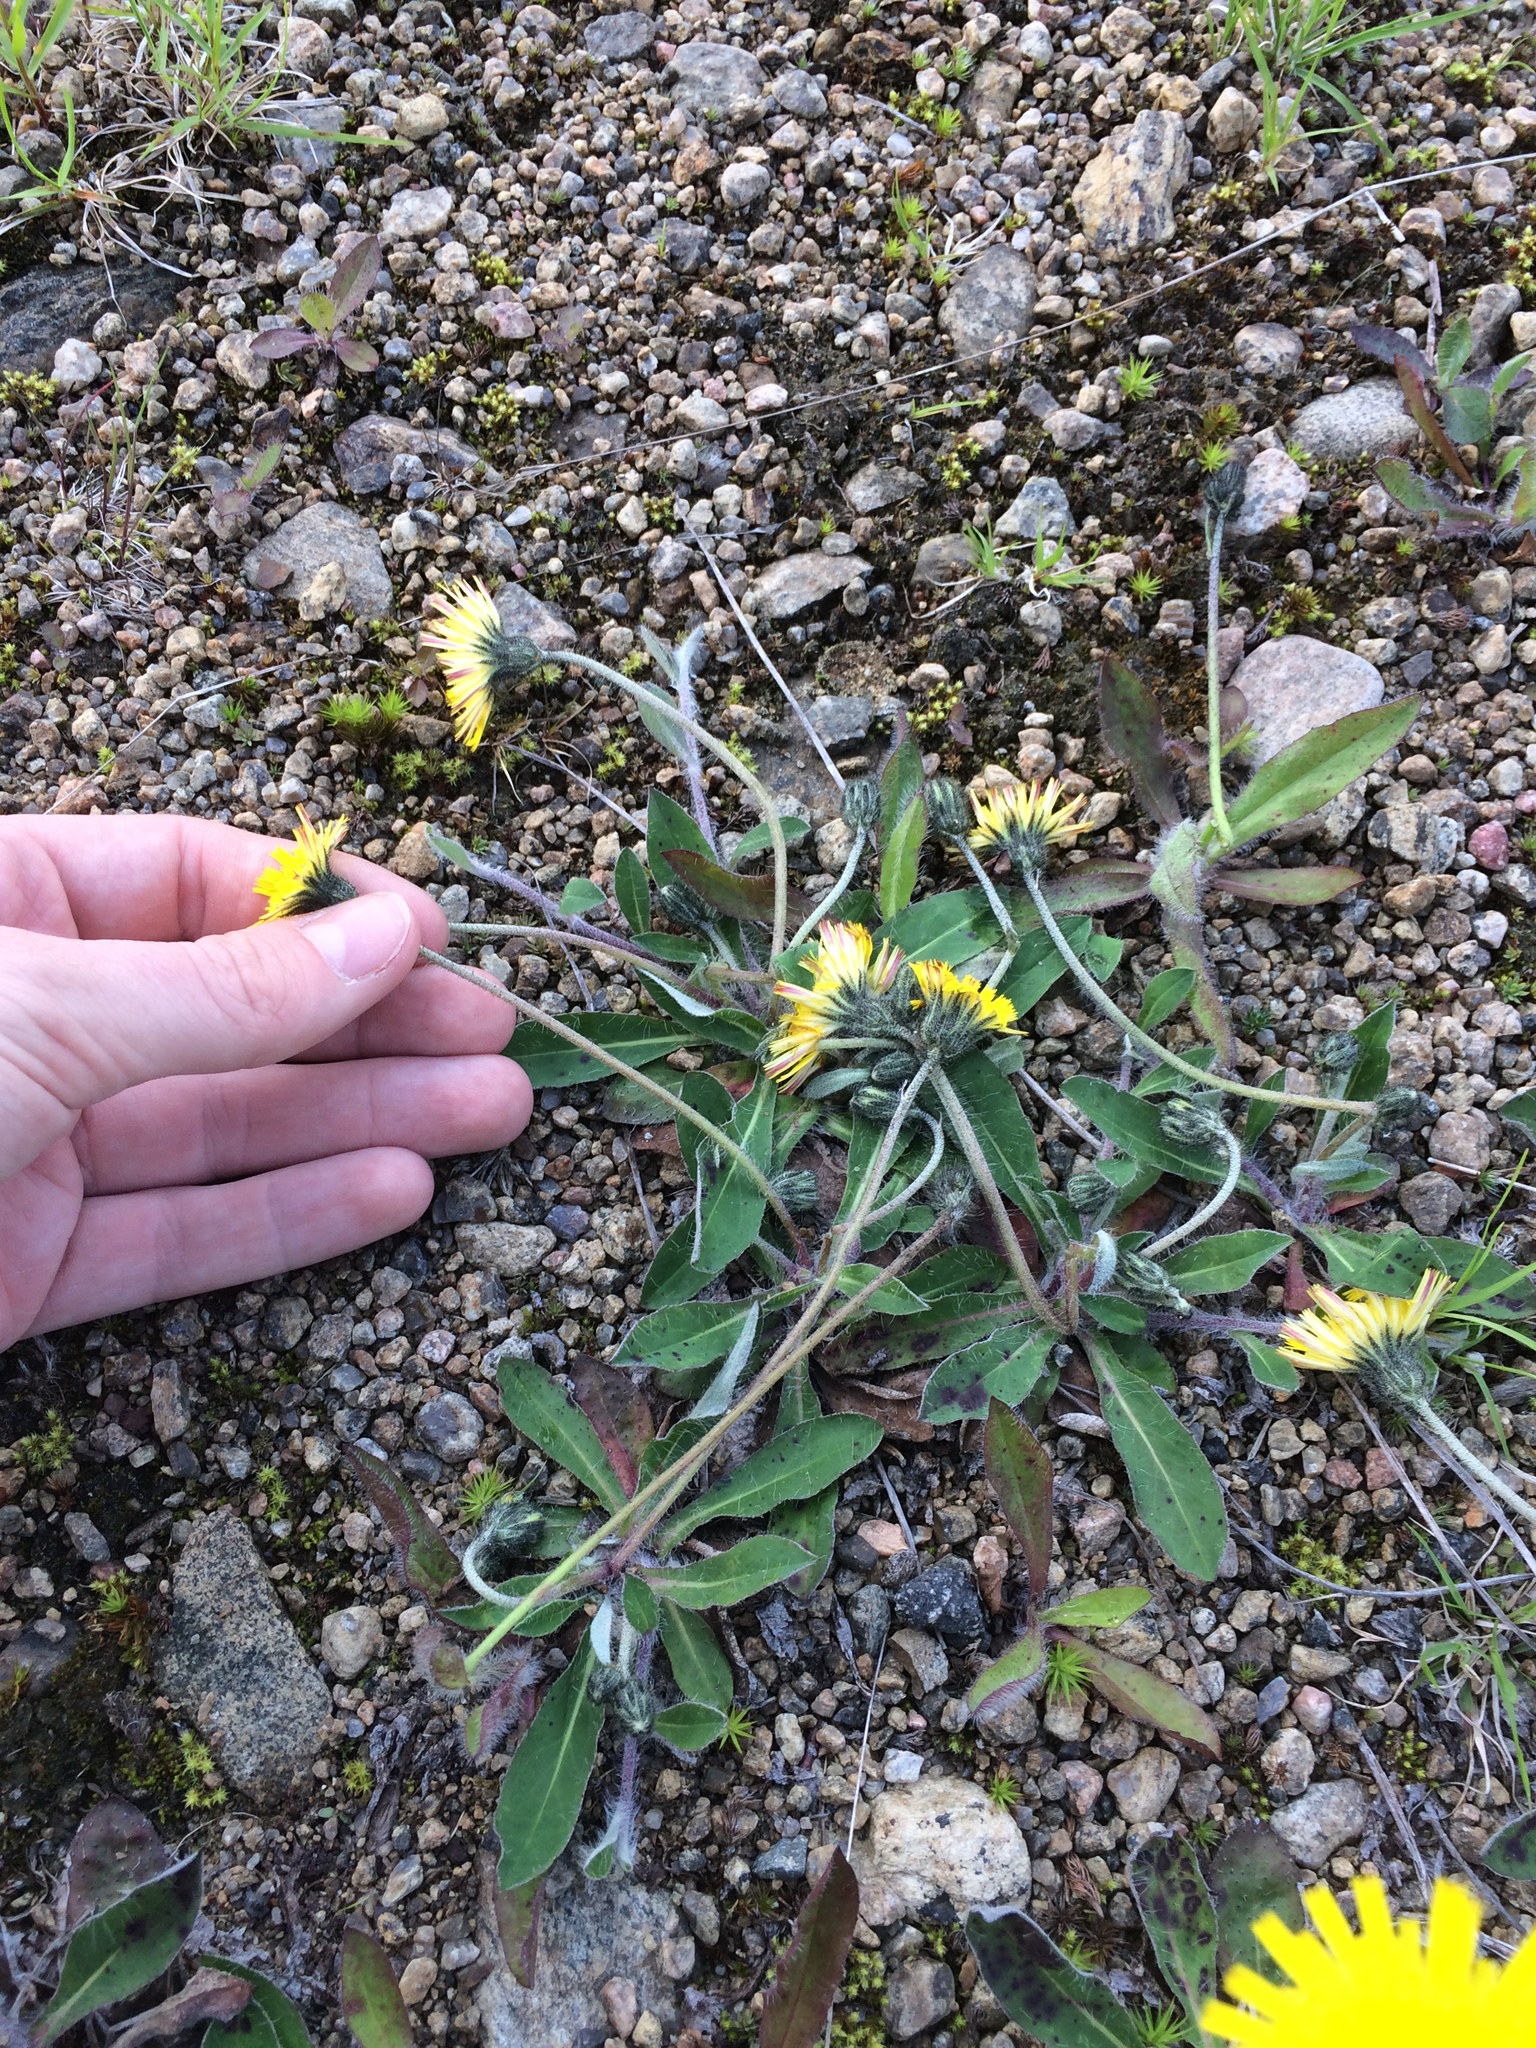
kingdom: Plantae
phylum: Tracheophyta
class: Magnoliopsida
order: Asterales
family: Asteraceae
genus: Pilosella
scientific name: Pilosella officinarum
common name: Mouse-ear hawkweed
